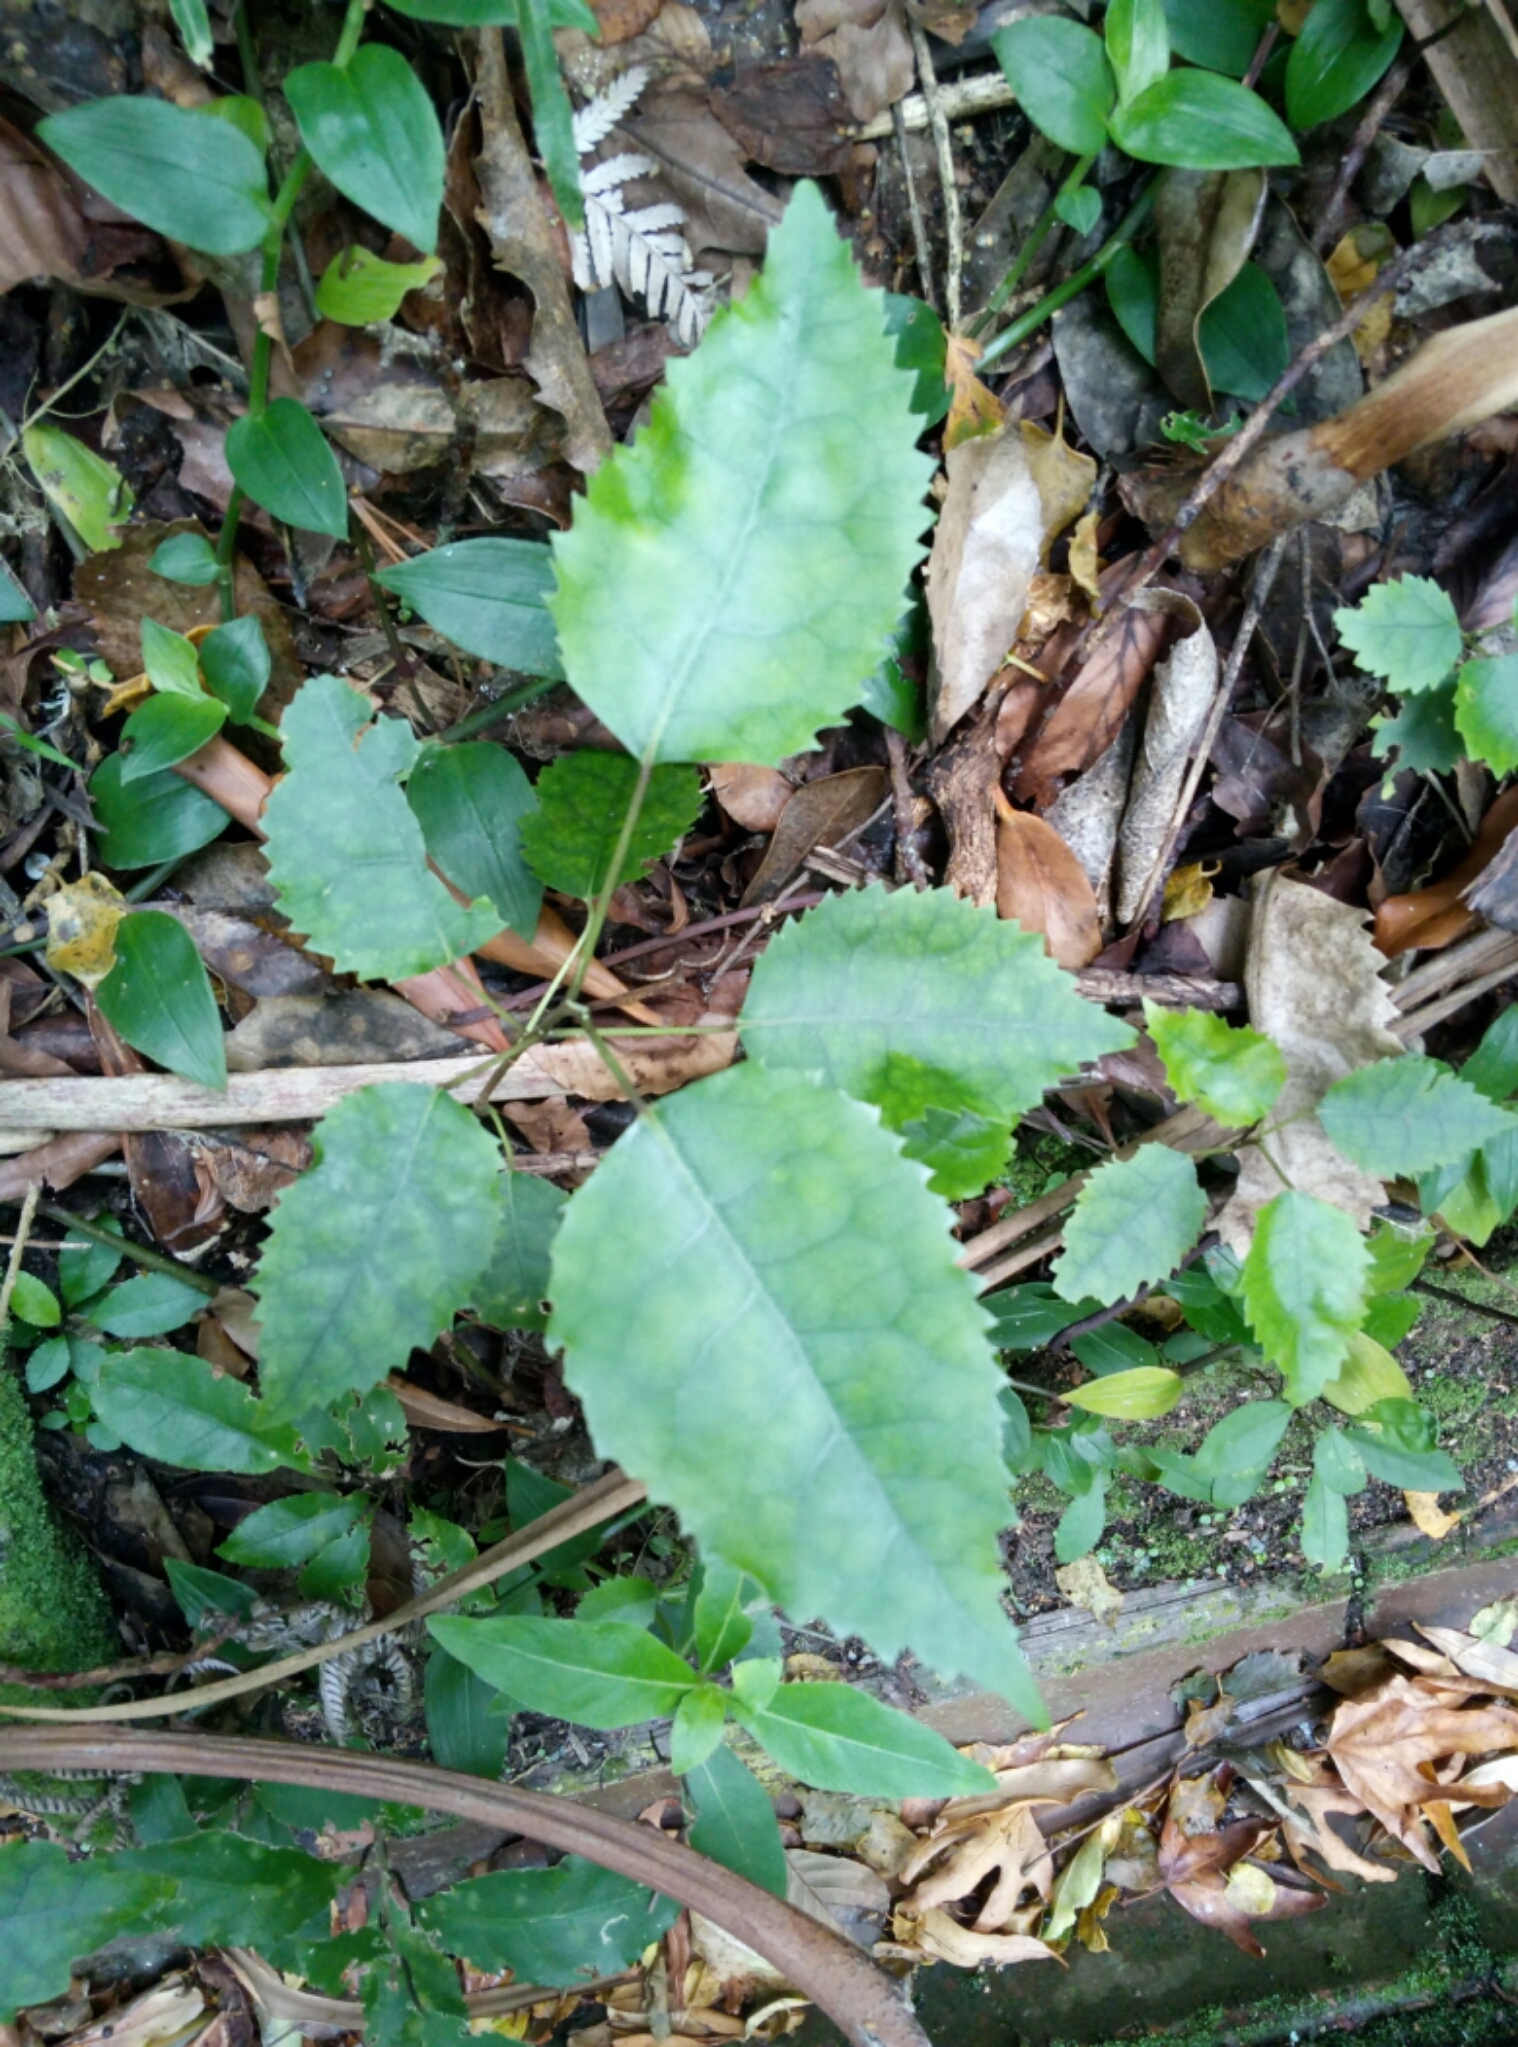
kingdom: Plantae
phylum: Tracheophyta
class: Magnoliopsida
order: Malvales
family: Malvaceae
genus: Hoheria
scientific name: Hoheria populnea
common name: Lacebark
